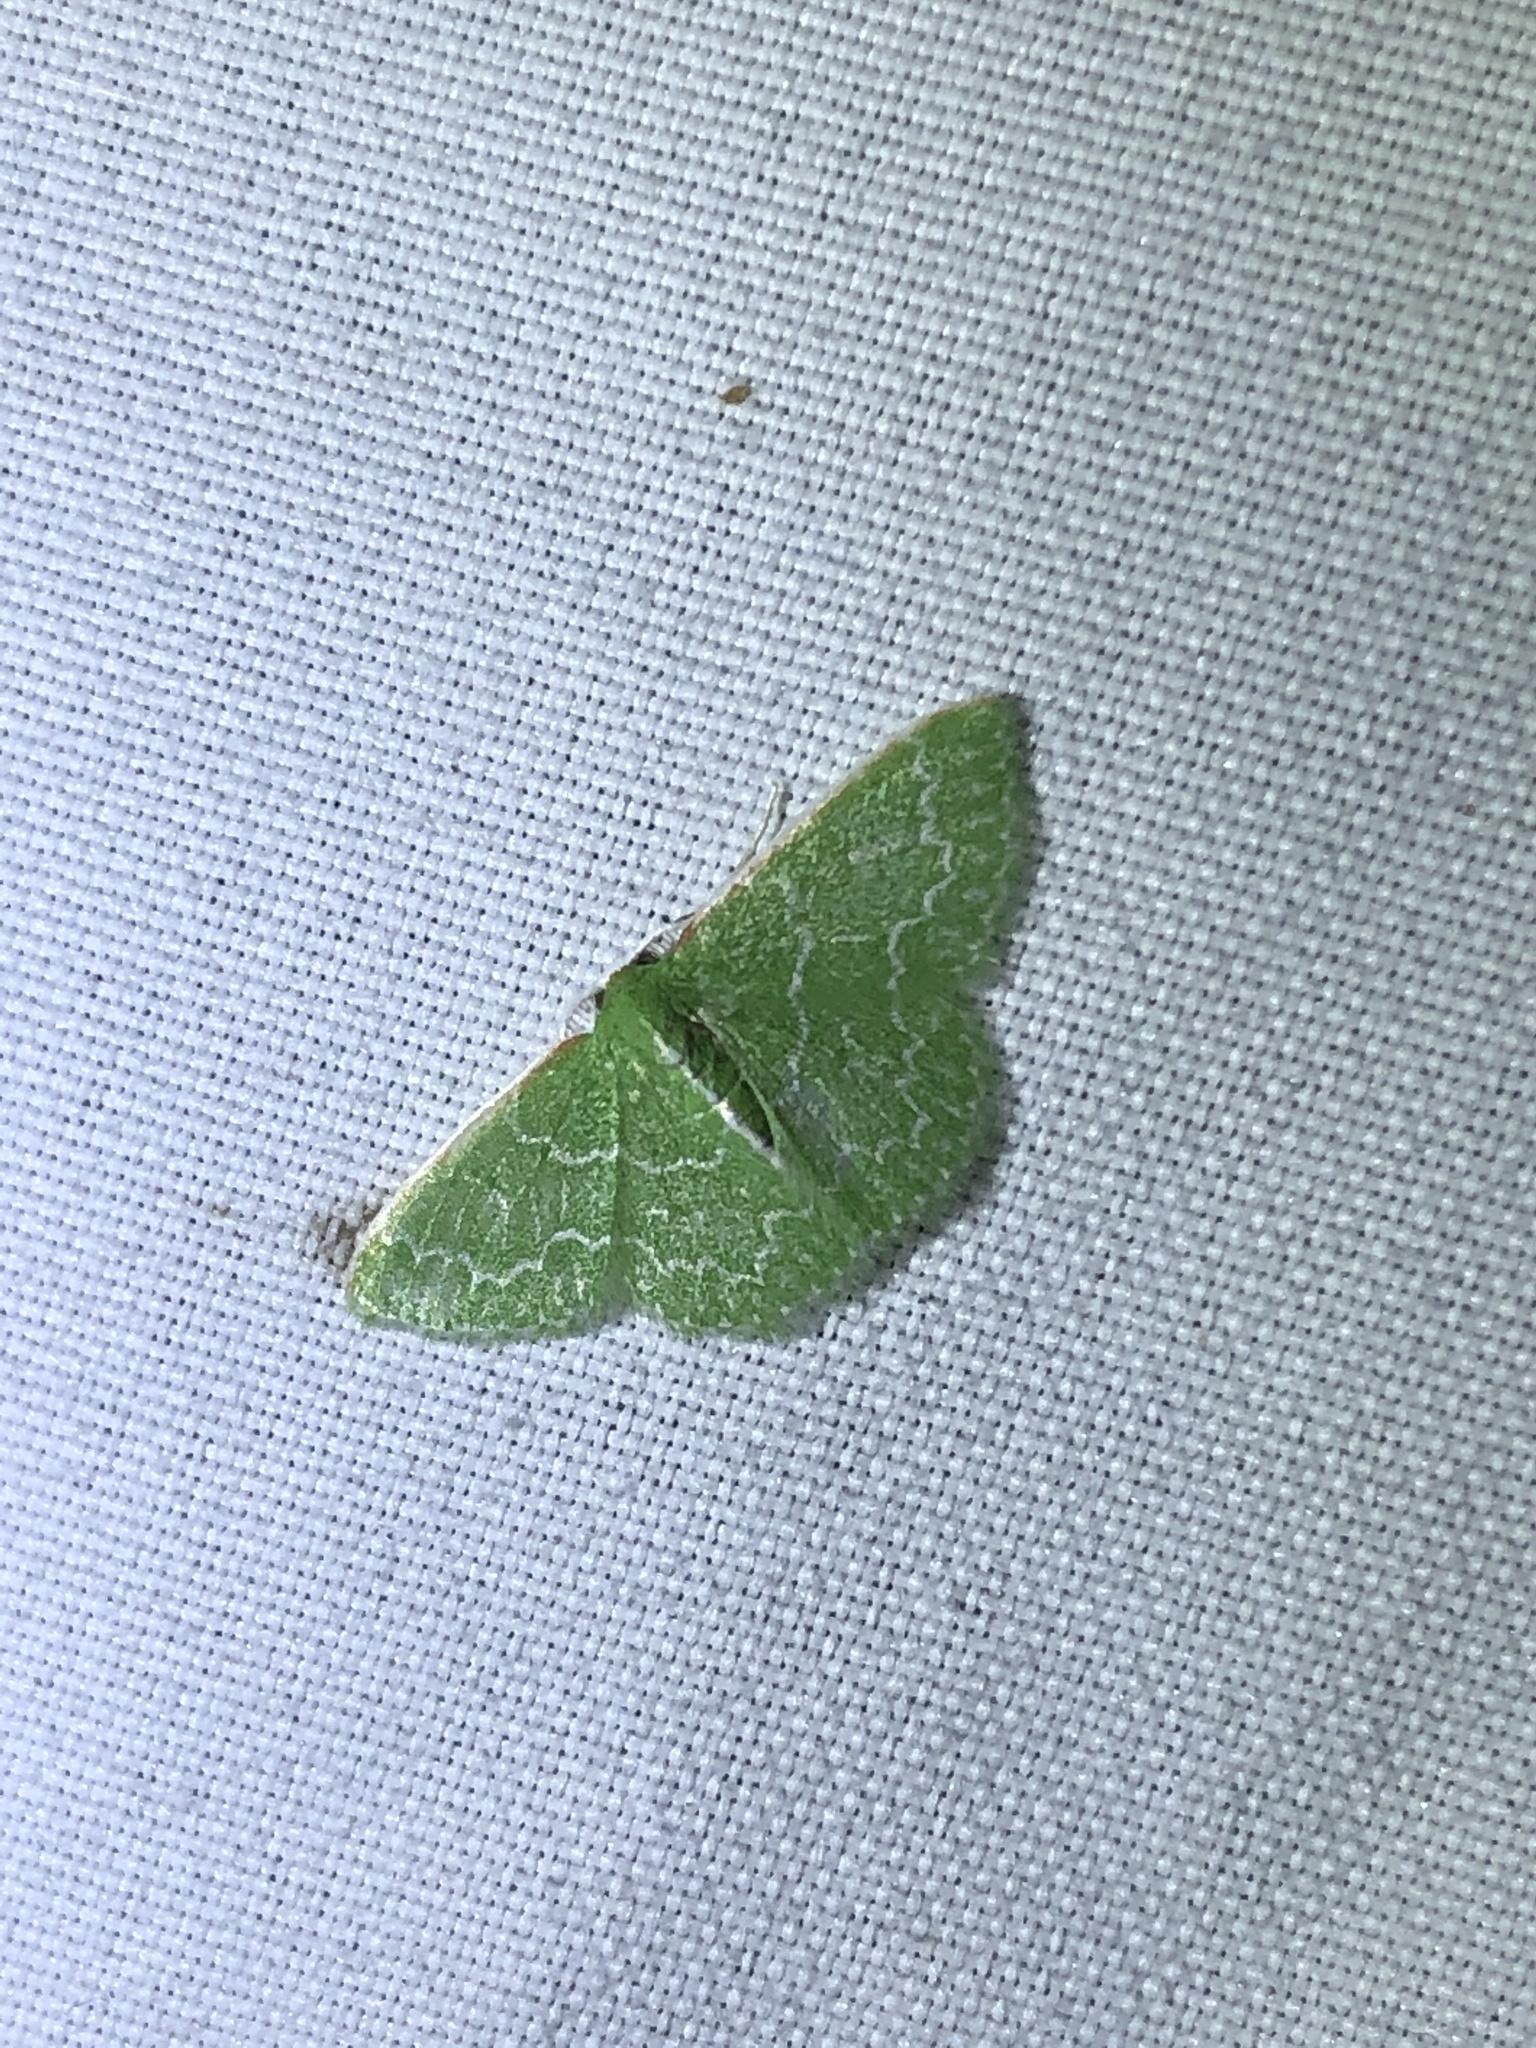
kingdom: Animalia
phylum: Arthropoda
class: Insecta
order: Lepidoptera
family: Geometridae
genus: Synchlora
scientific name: Synchlora frondaria
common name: Southern emerald
